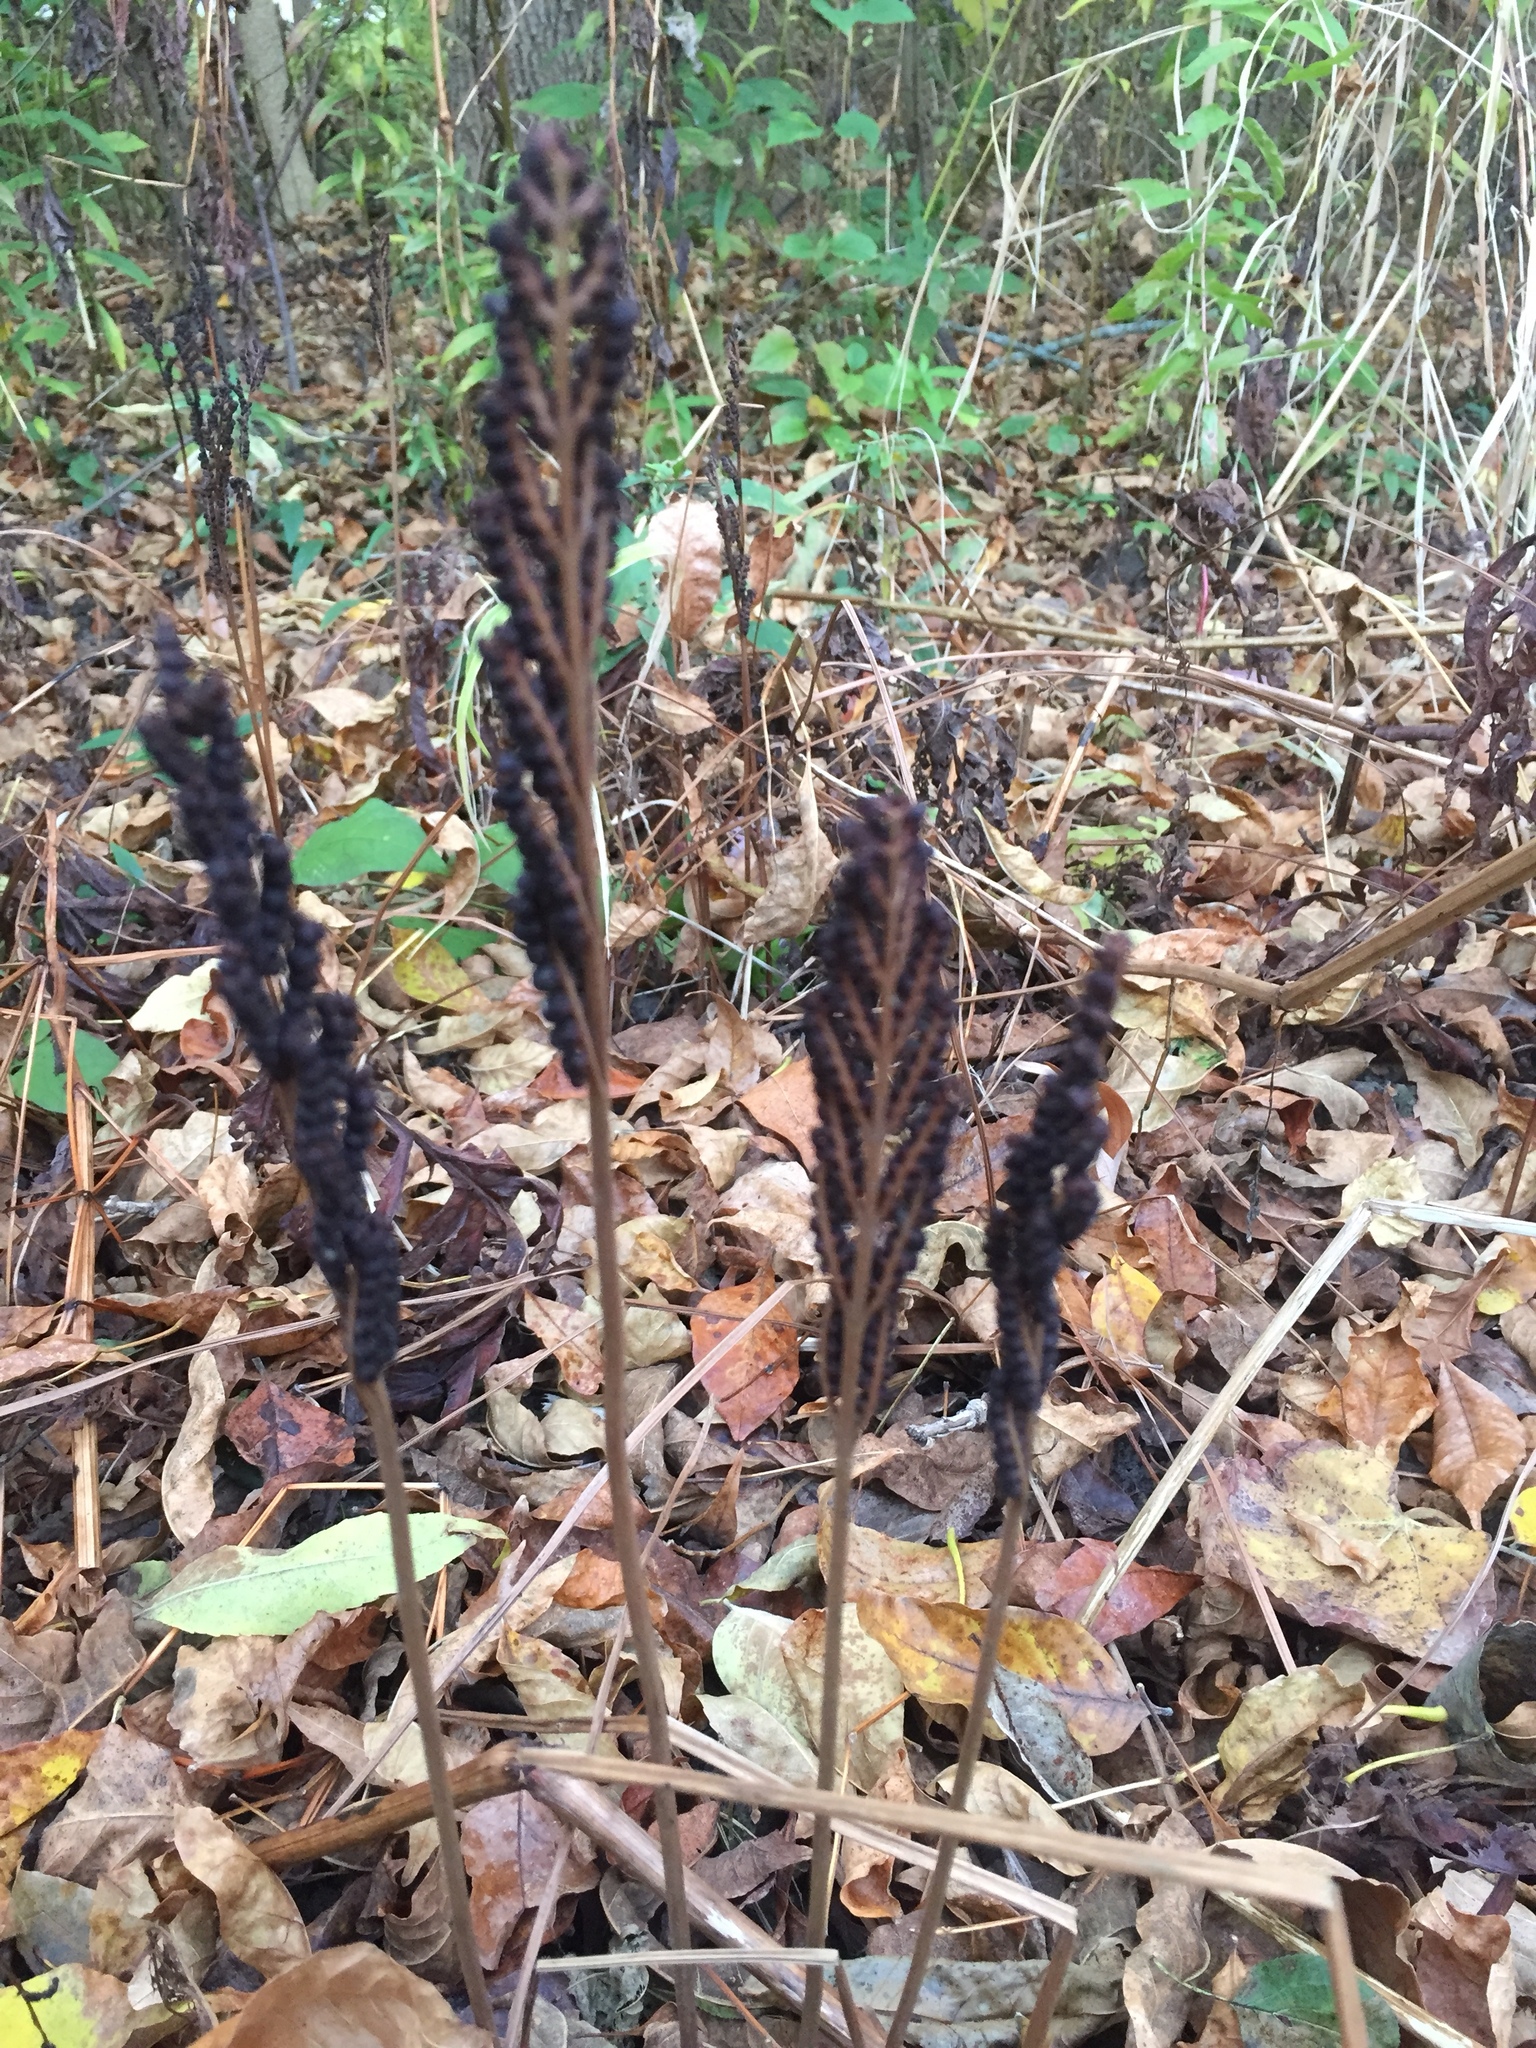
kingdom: Plantae
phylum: Tracheophyta
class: Polypodiopsida
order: Polypodiales
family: Onocleaceae
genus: Onoclea
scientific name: Onoclea sensibilis
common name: Sensitive fern
